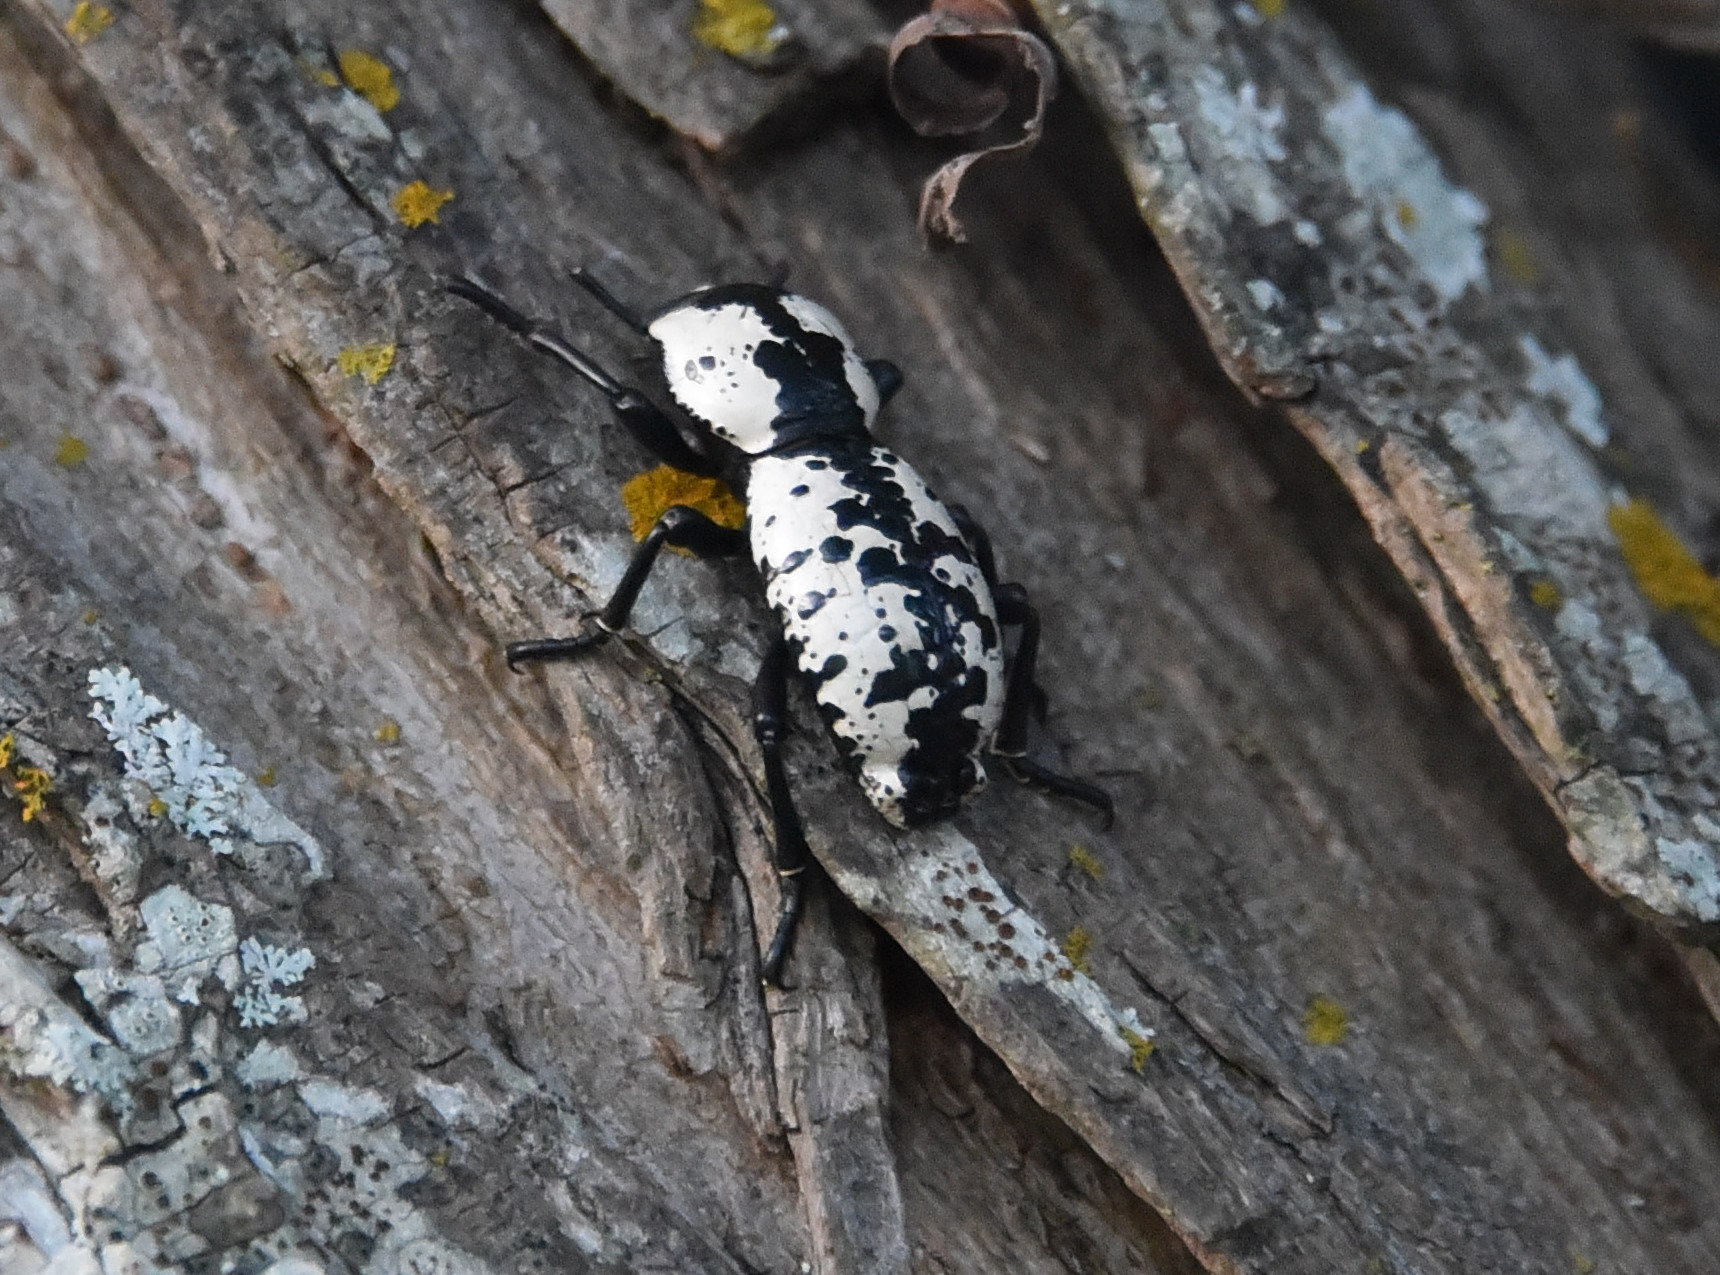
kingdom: Animalia
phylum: Arthropoda
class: Insecta
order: Coleoptera
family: Zopheridae
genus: Zopherus
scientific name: Zopherus nodulosus
